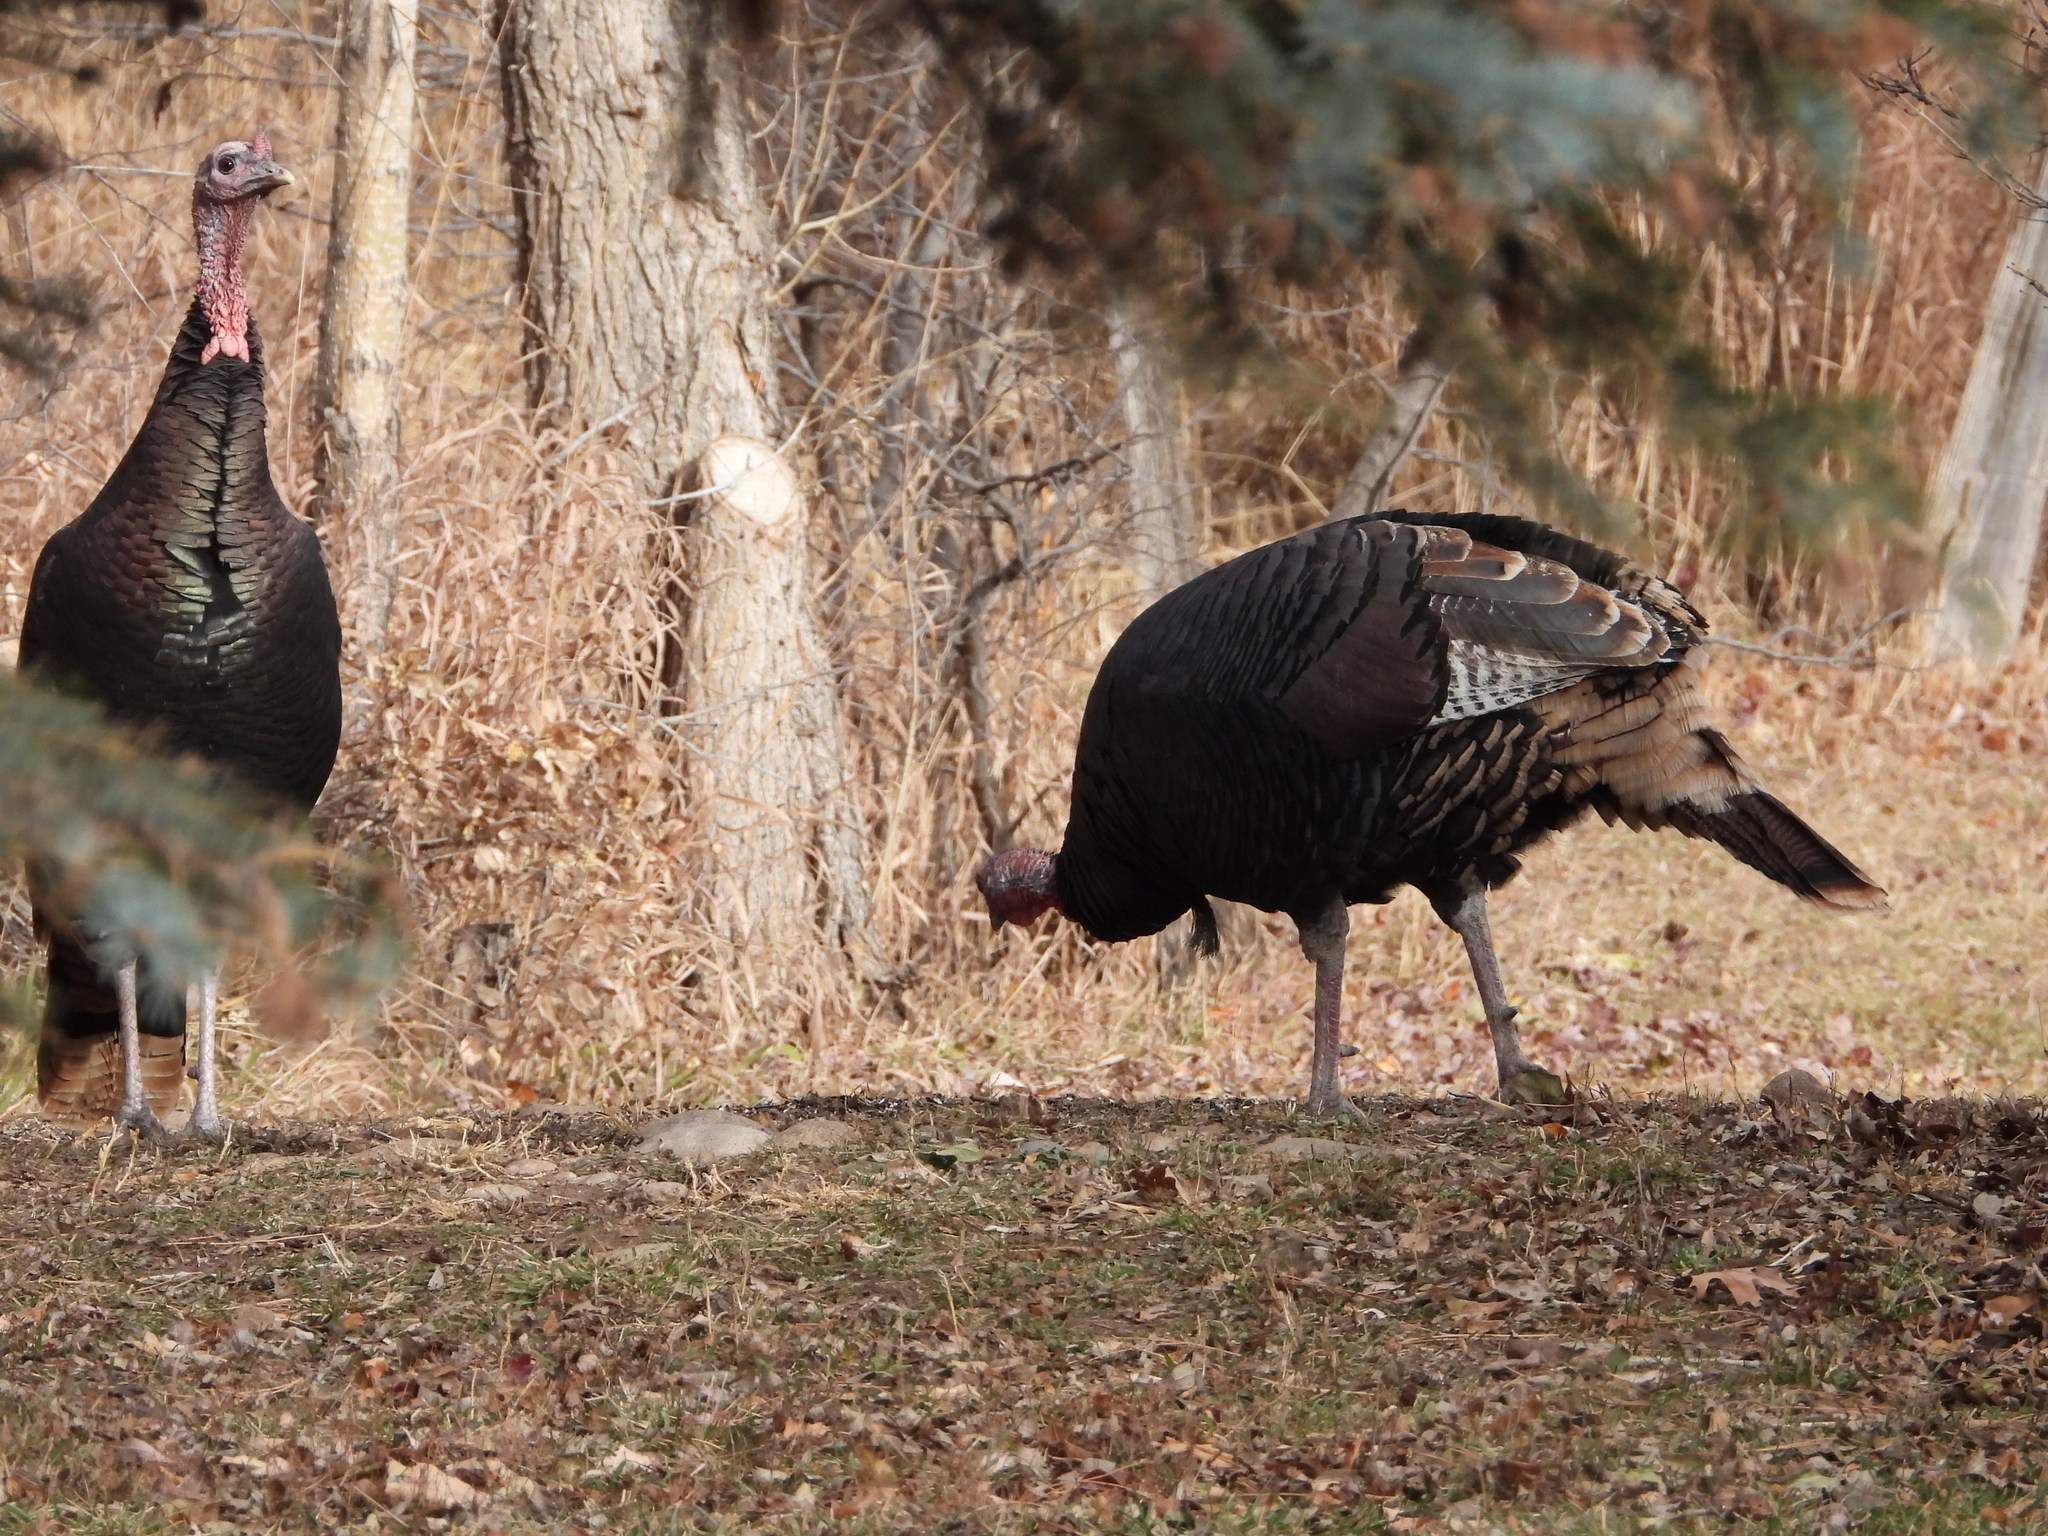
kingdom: Animalia
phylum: Chordata
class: Aves
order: Galliformes
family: Phasianidae
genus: Meleagris
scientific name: Meleagris gallopavo
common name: Wild turkey
